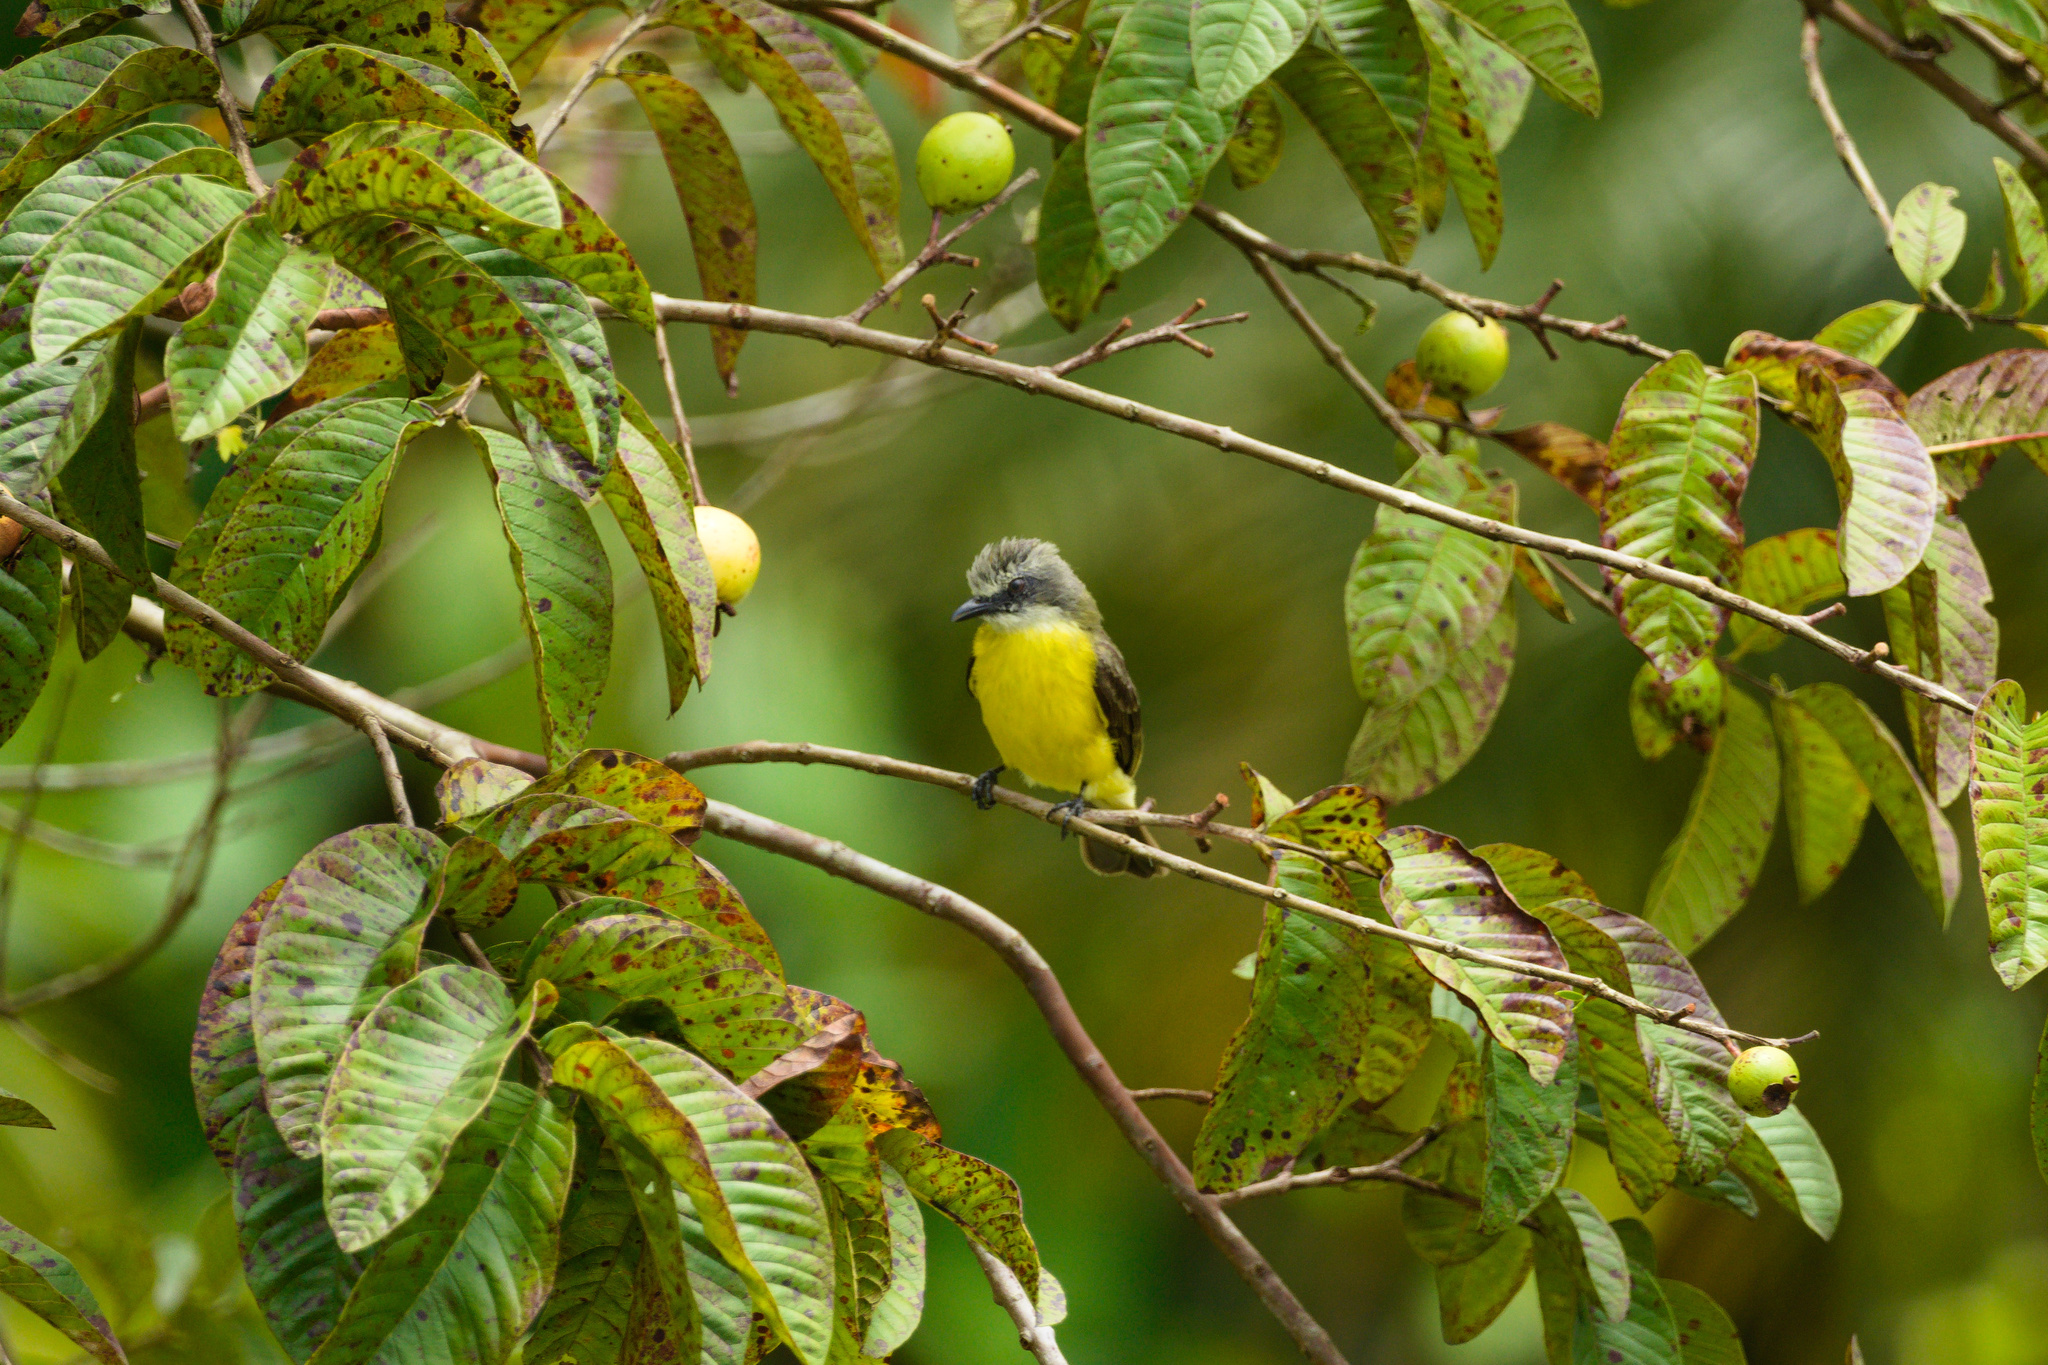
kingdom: Animalia
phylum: Chordata
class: Aves
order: Passeriformes
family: Tyrannidae
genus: Myiozetetes
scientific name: Myiozetetes granadensis
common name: Gray-capped flycatcher
